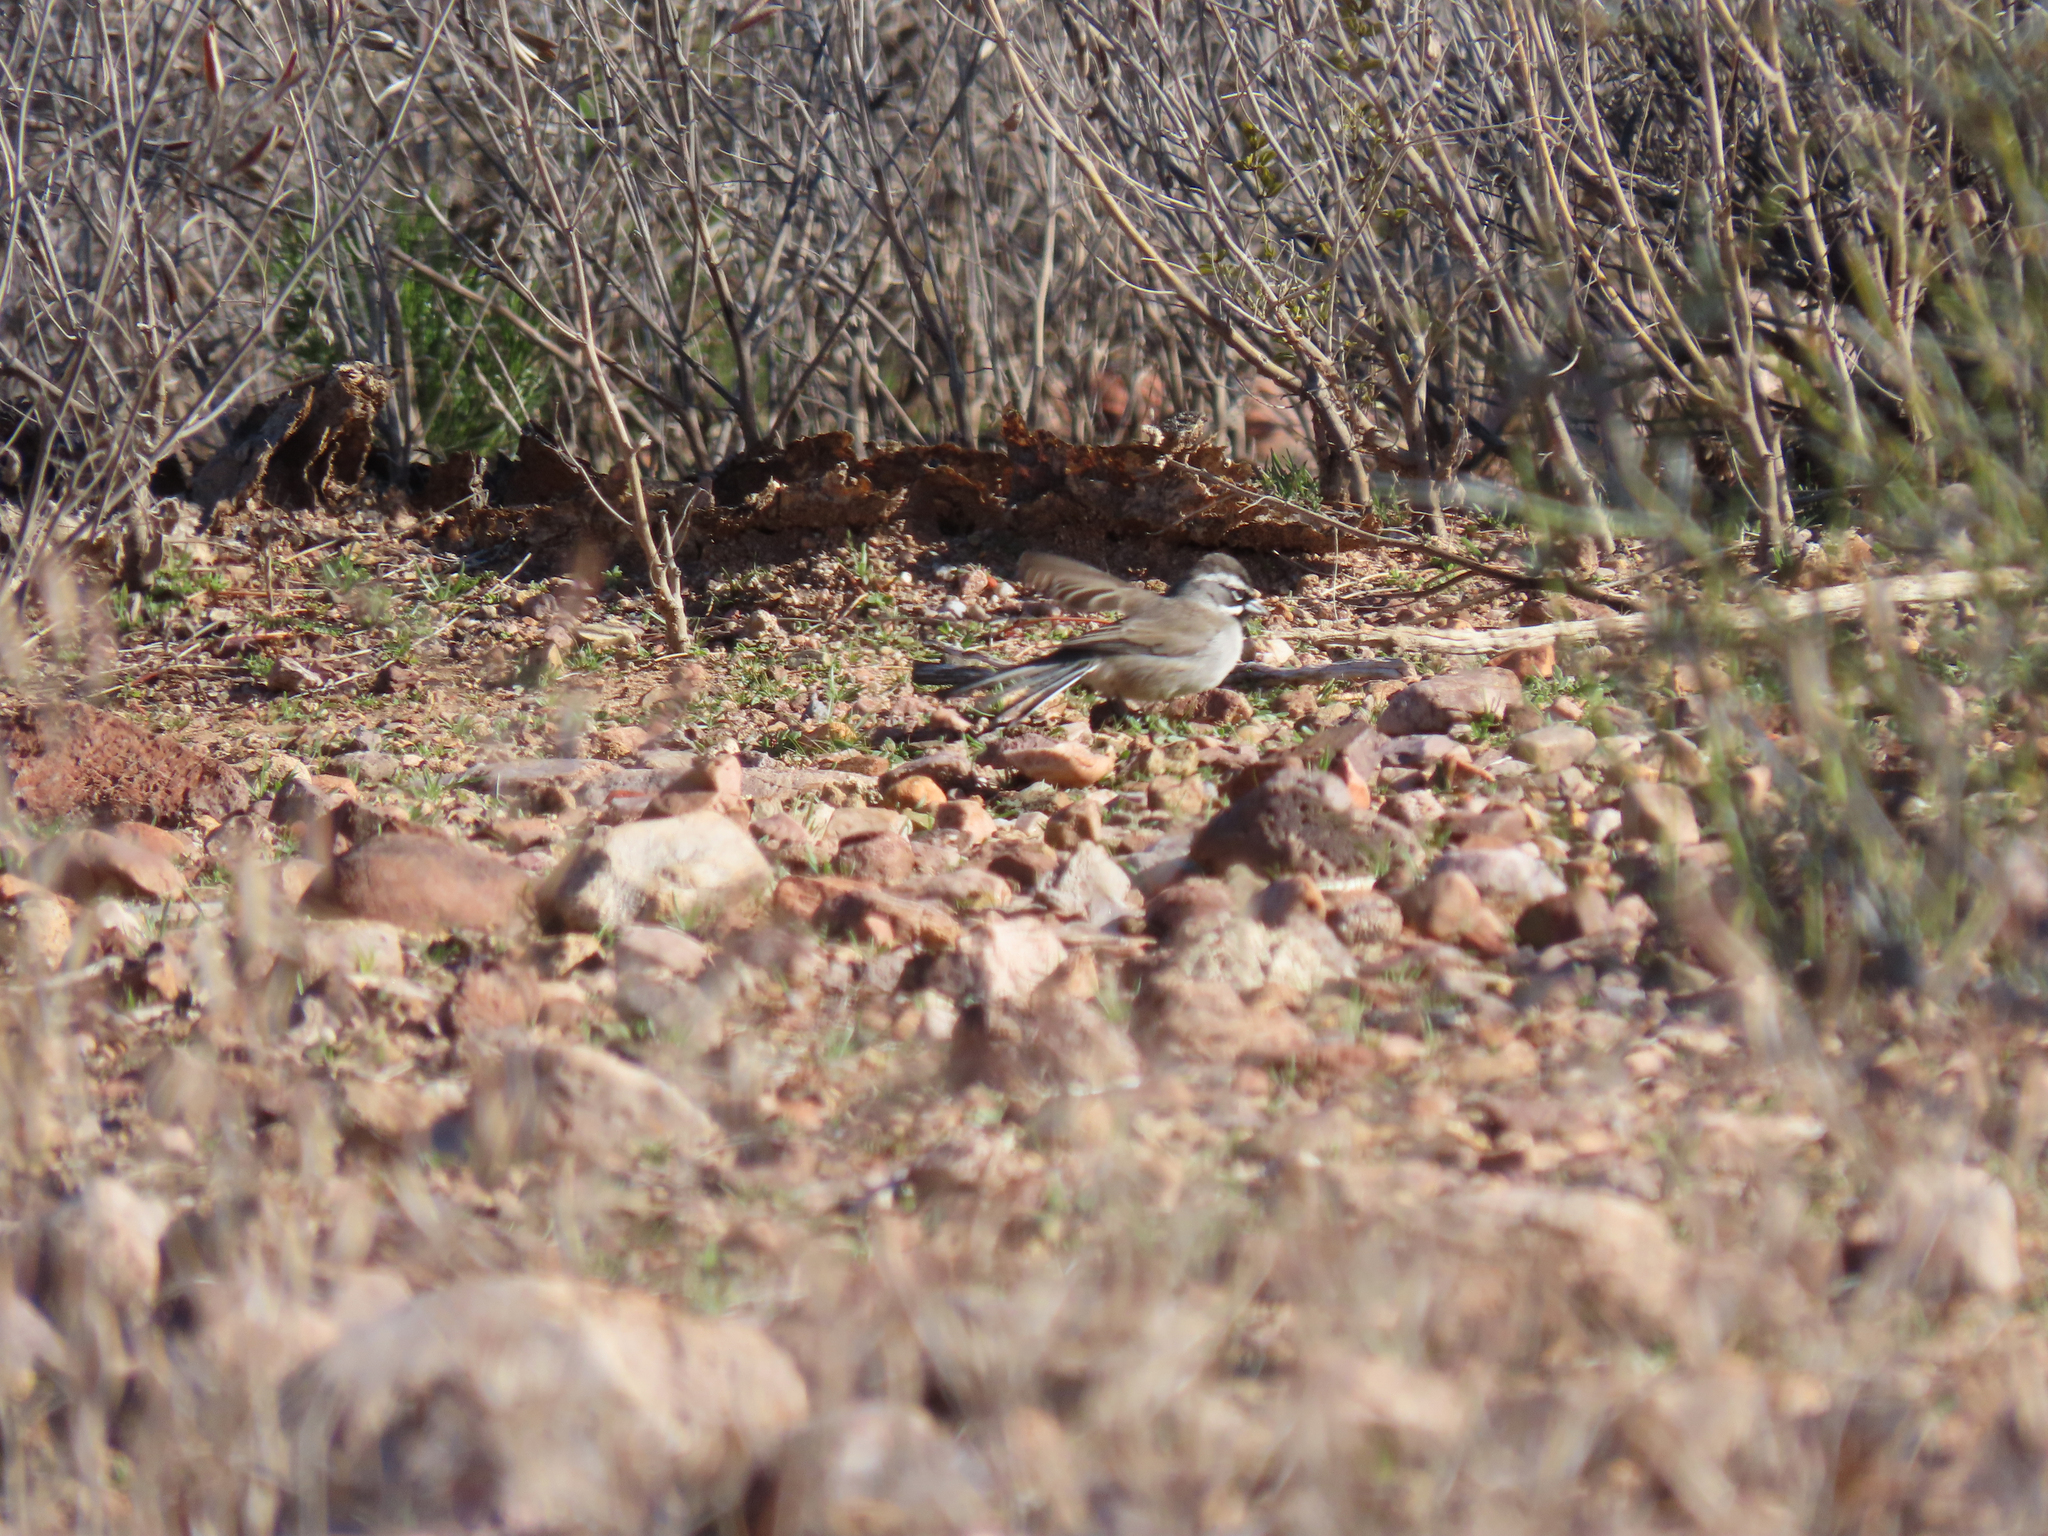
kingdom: Animalia
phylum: Chordata
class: Aves
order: Passeriformes
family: Passerellidae
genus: Amphispiza
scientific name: Amphispiza bilineata
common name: Black-throated sparrow
